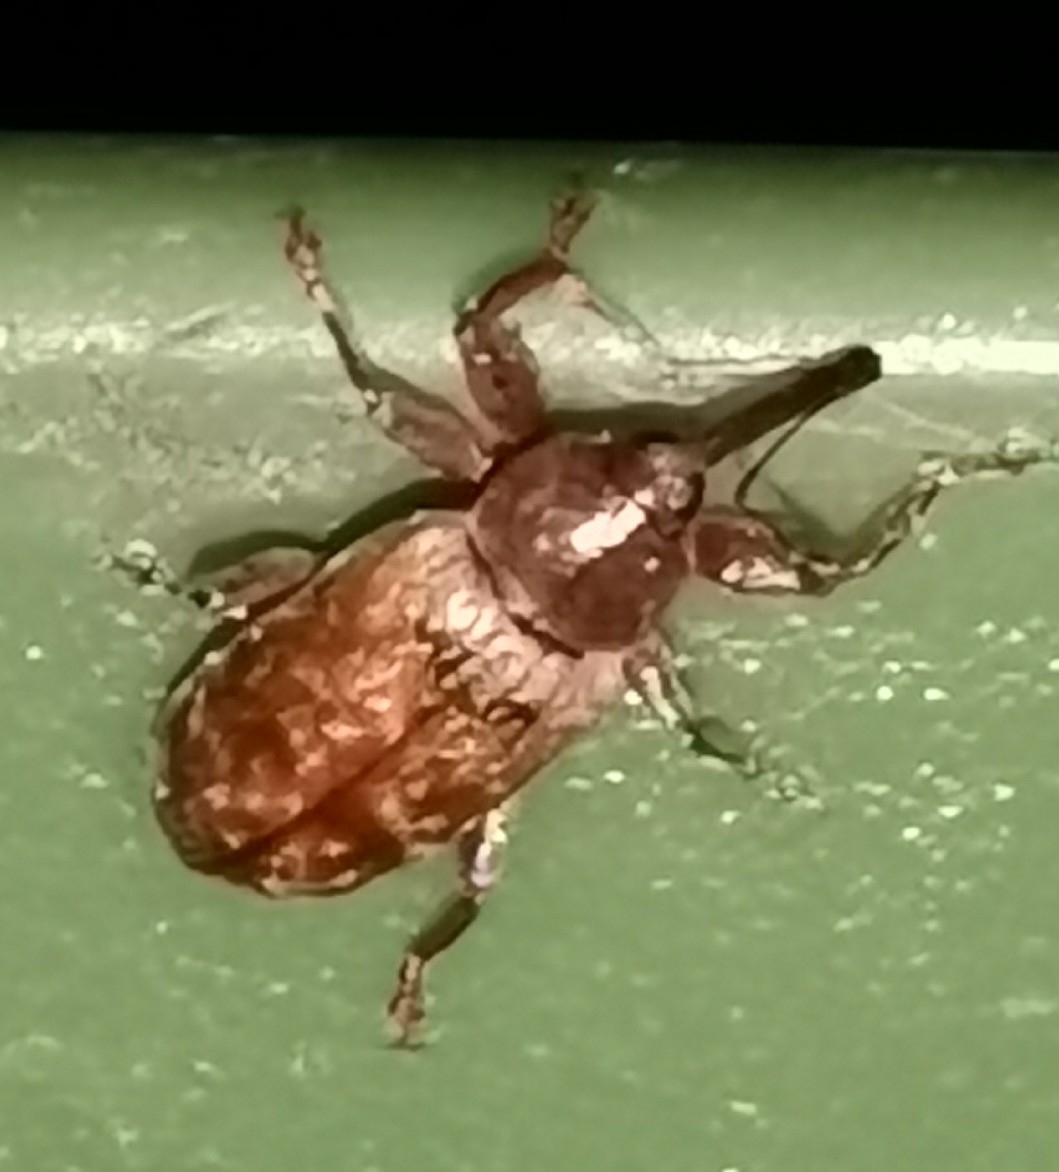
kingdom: Animalia
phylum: Arthropoda
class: Insecta
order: Coleoptera
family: Curculionidae
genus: Dorytomus
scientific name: Dorytomus tortrix
